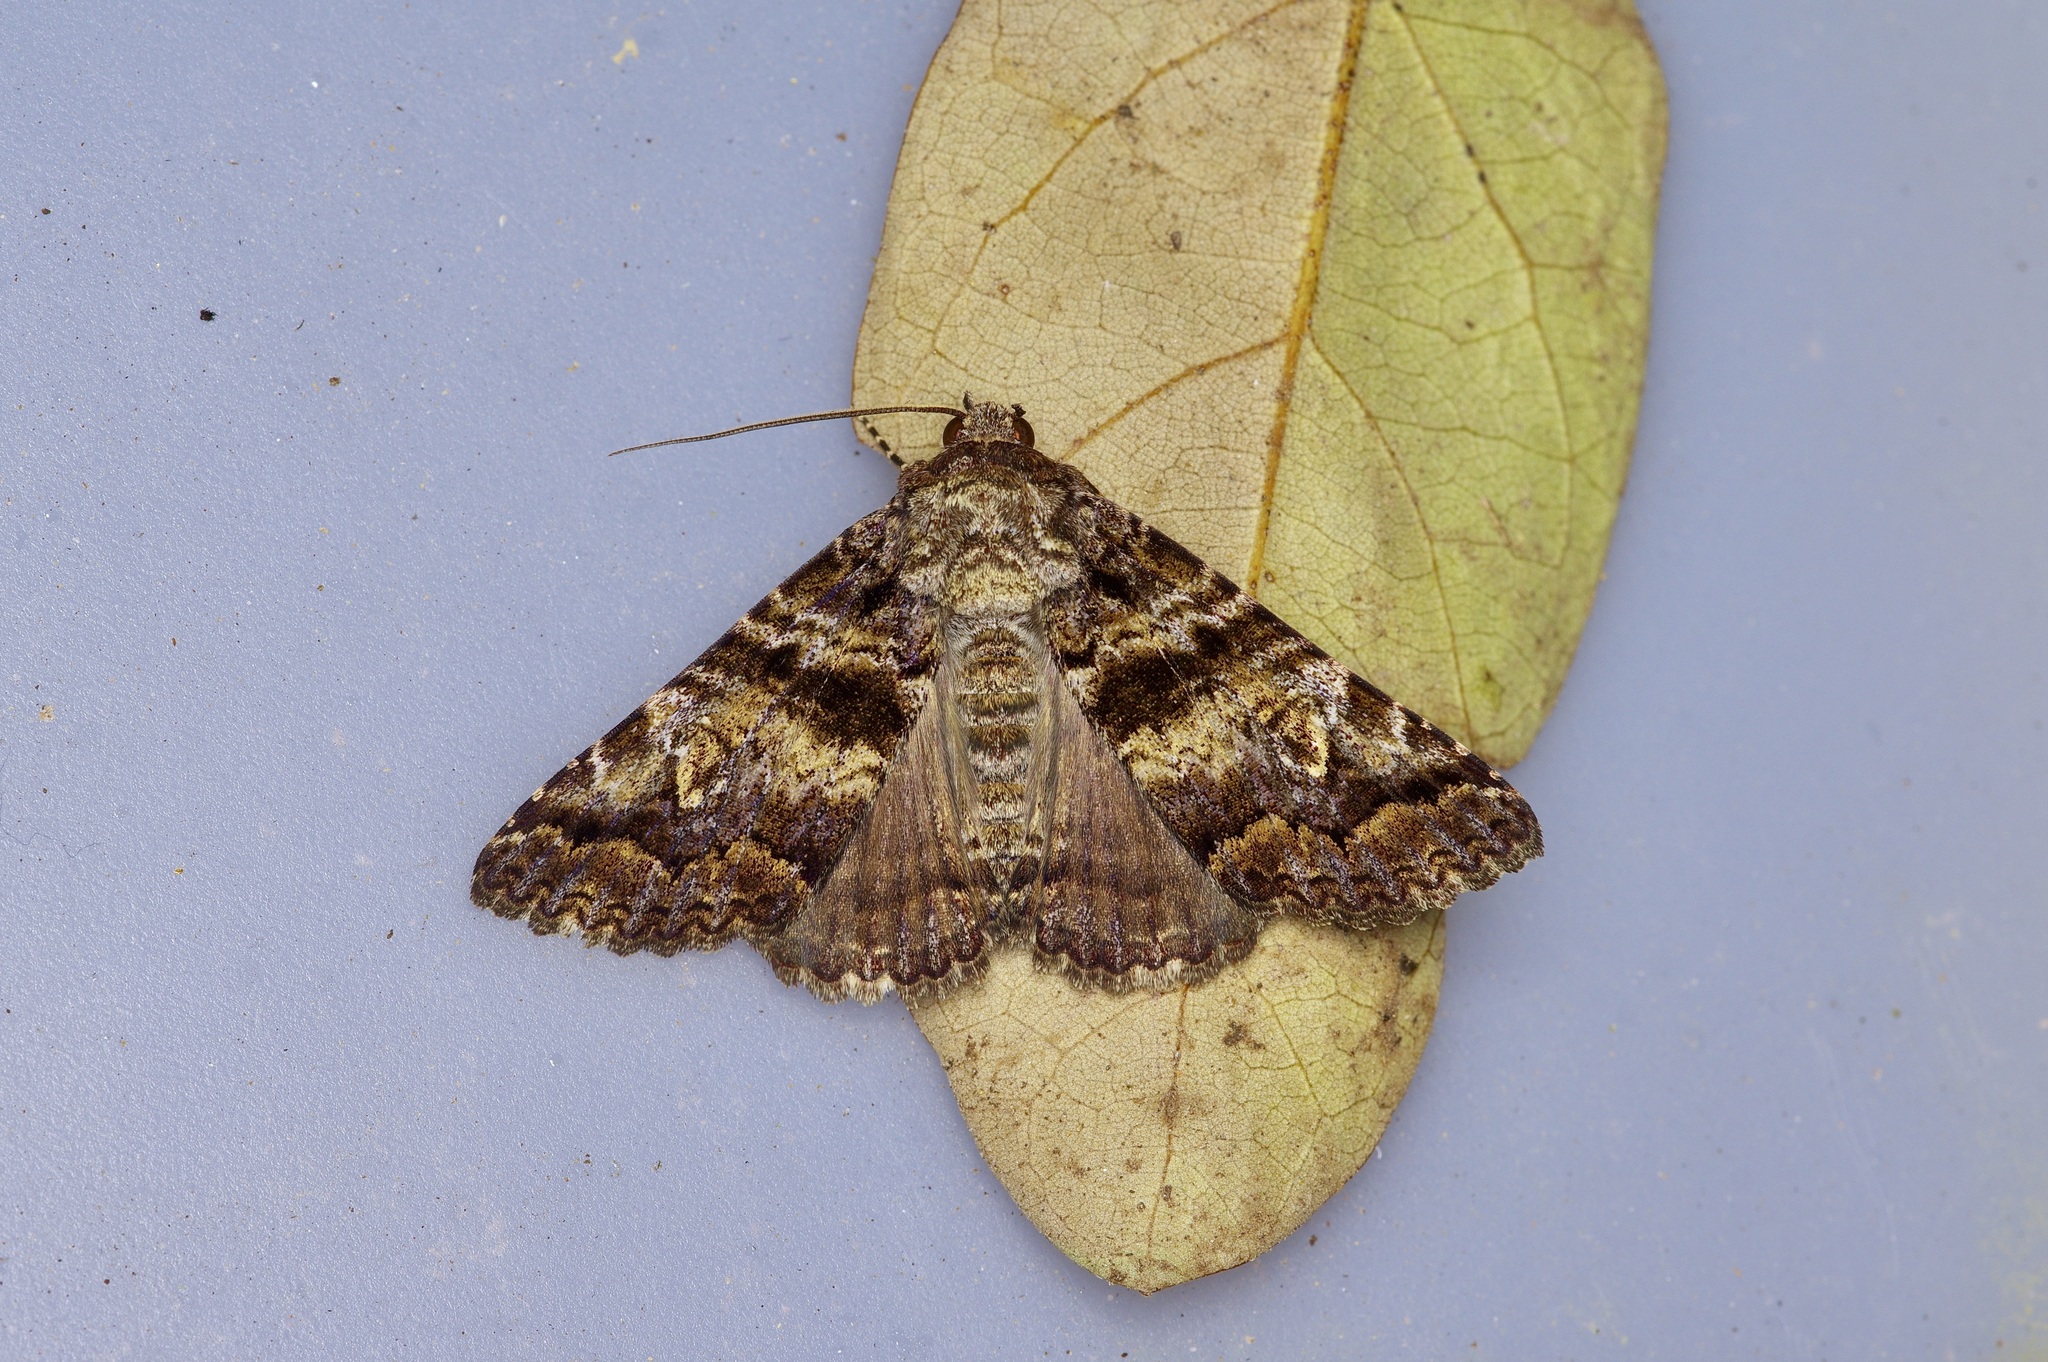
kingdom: Animalia
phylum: Arthropoda
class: Insecta
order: Lepidoptera
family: Erebidae
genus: Metria
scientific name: Metria amella
